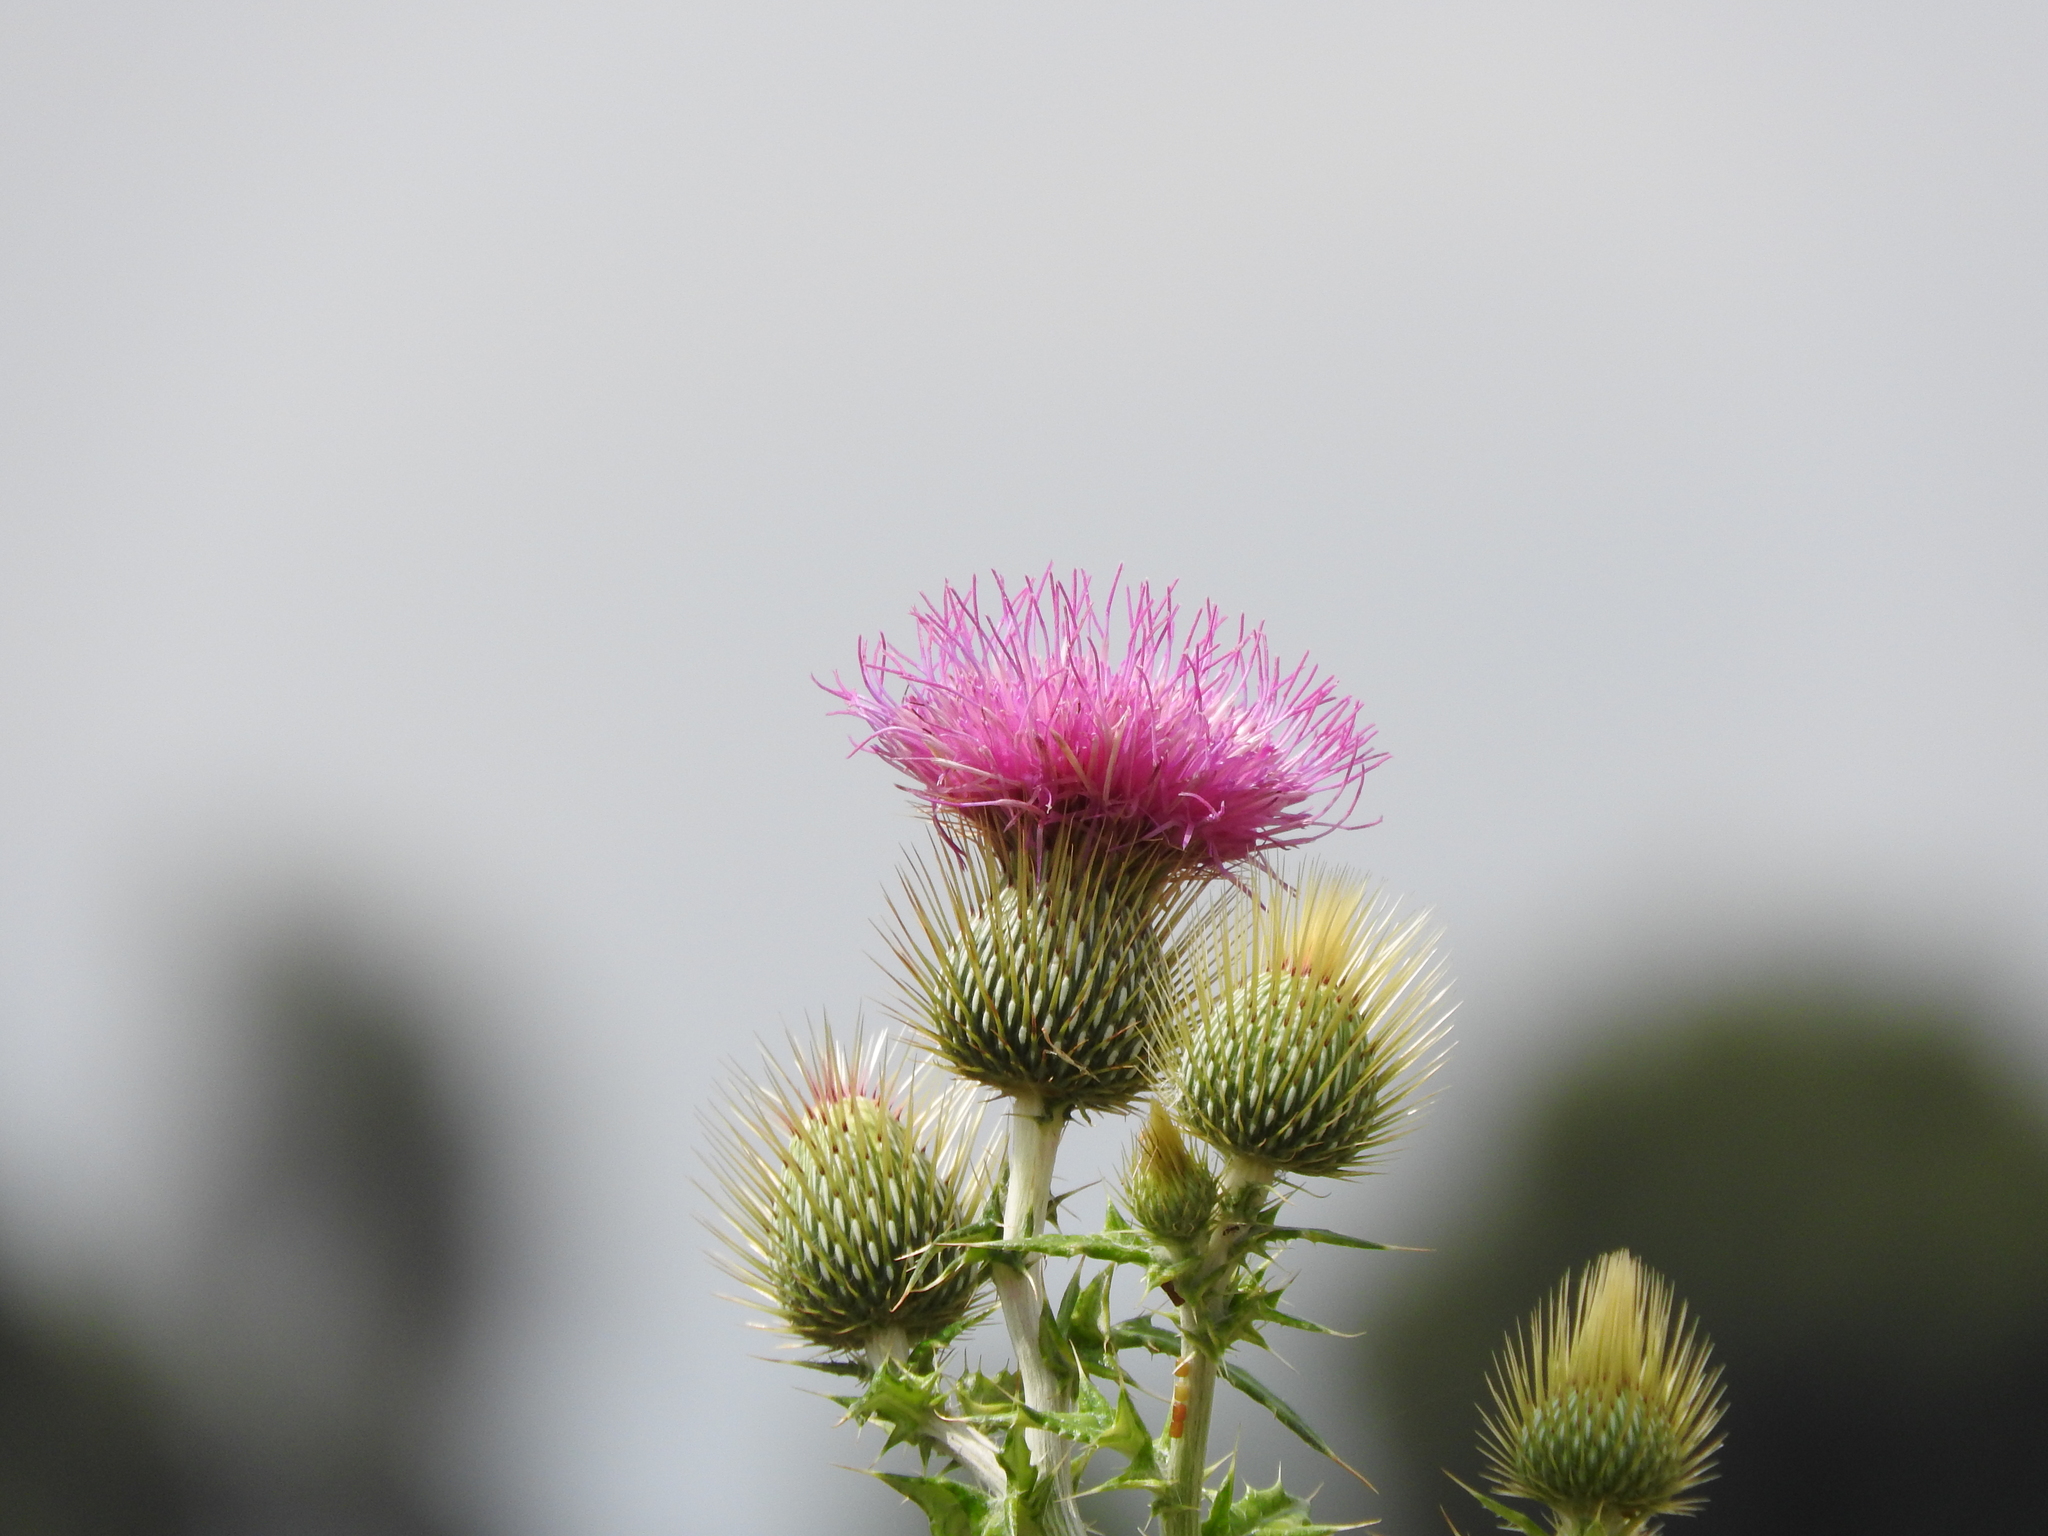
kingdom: Plantae
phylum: Tracheophyta
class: Magnoliopsida
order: Asterales
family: Asteraceae
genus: Cirsium
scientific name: Cirsium rhaphilepis
